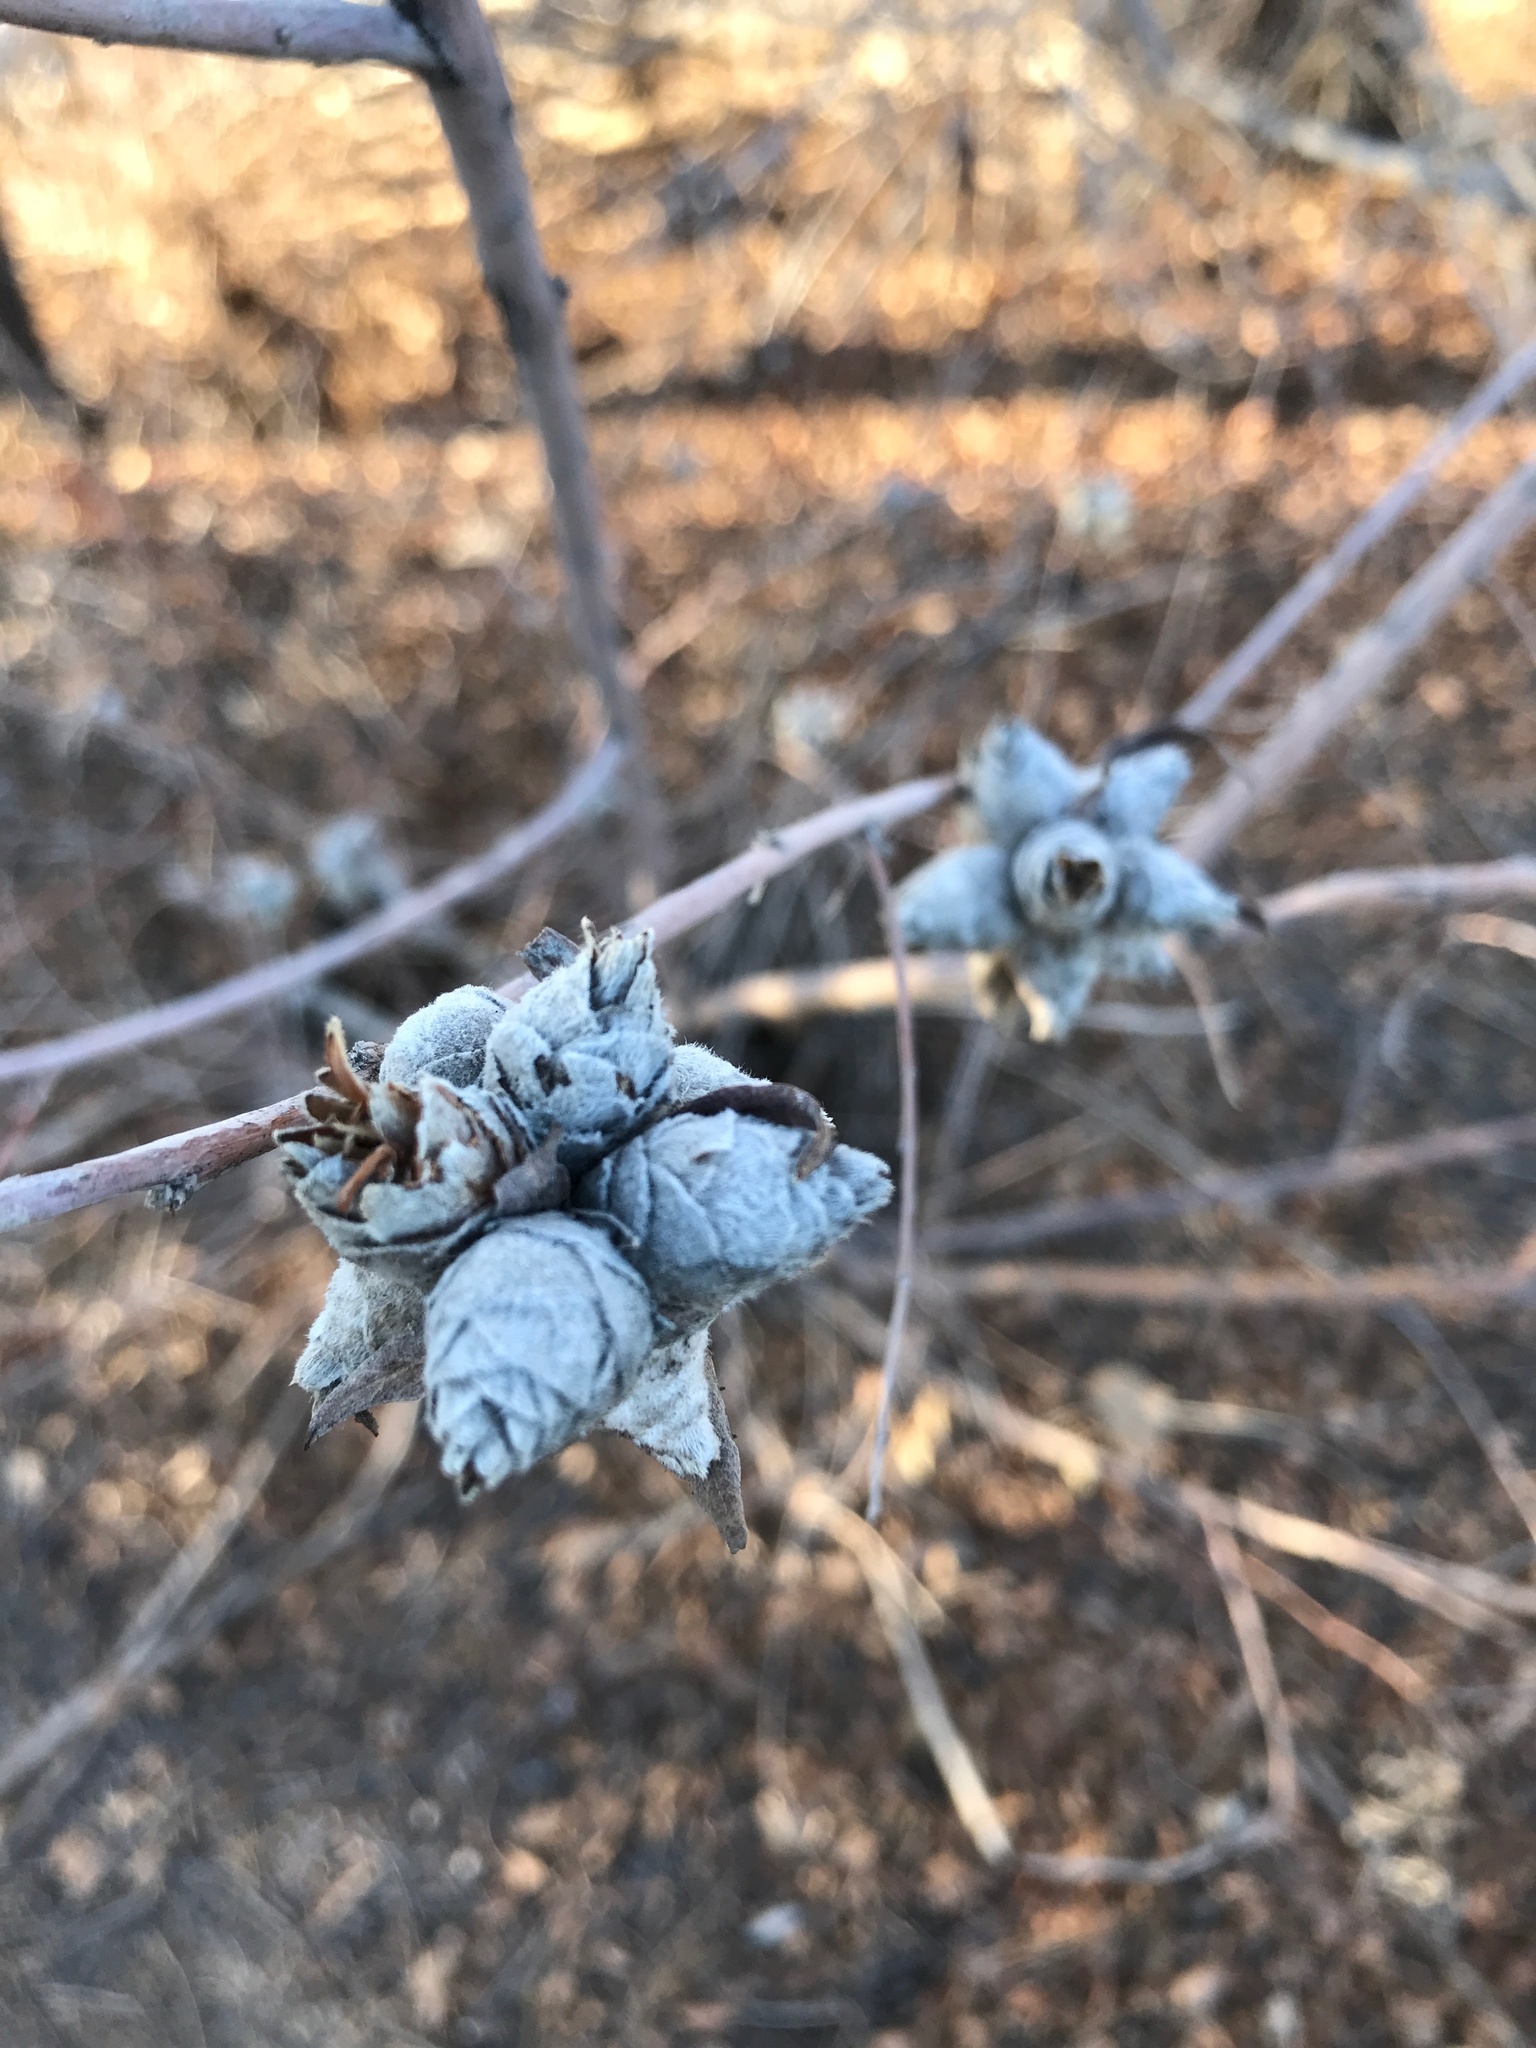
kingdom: Animalia
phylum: Arthropoda
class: Insecta
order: Diptera
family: Cecidomyiidae
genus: Rabdophaga
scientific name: Rabdophaga strobiloides
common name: Willow pinecone gall midge
